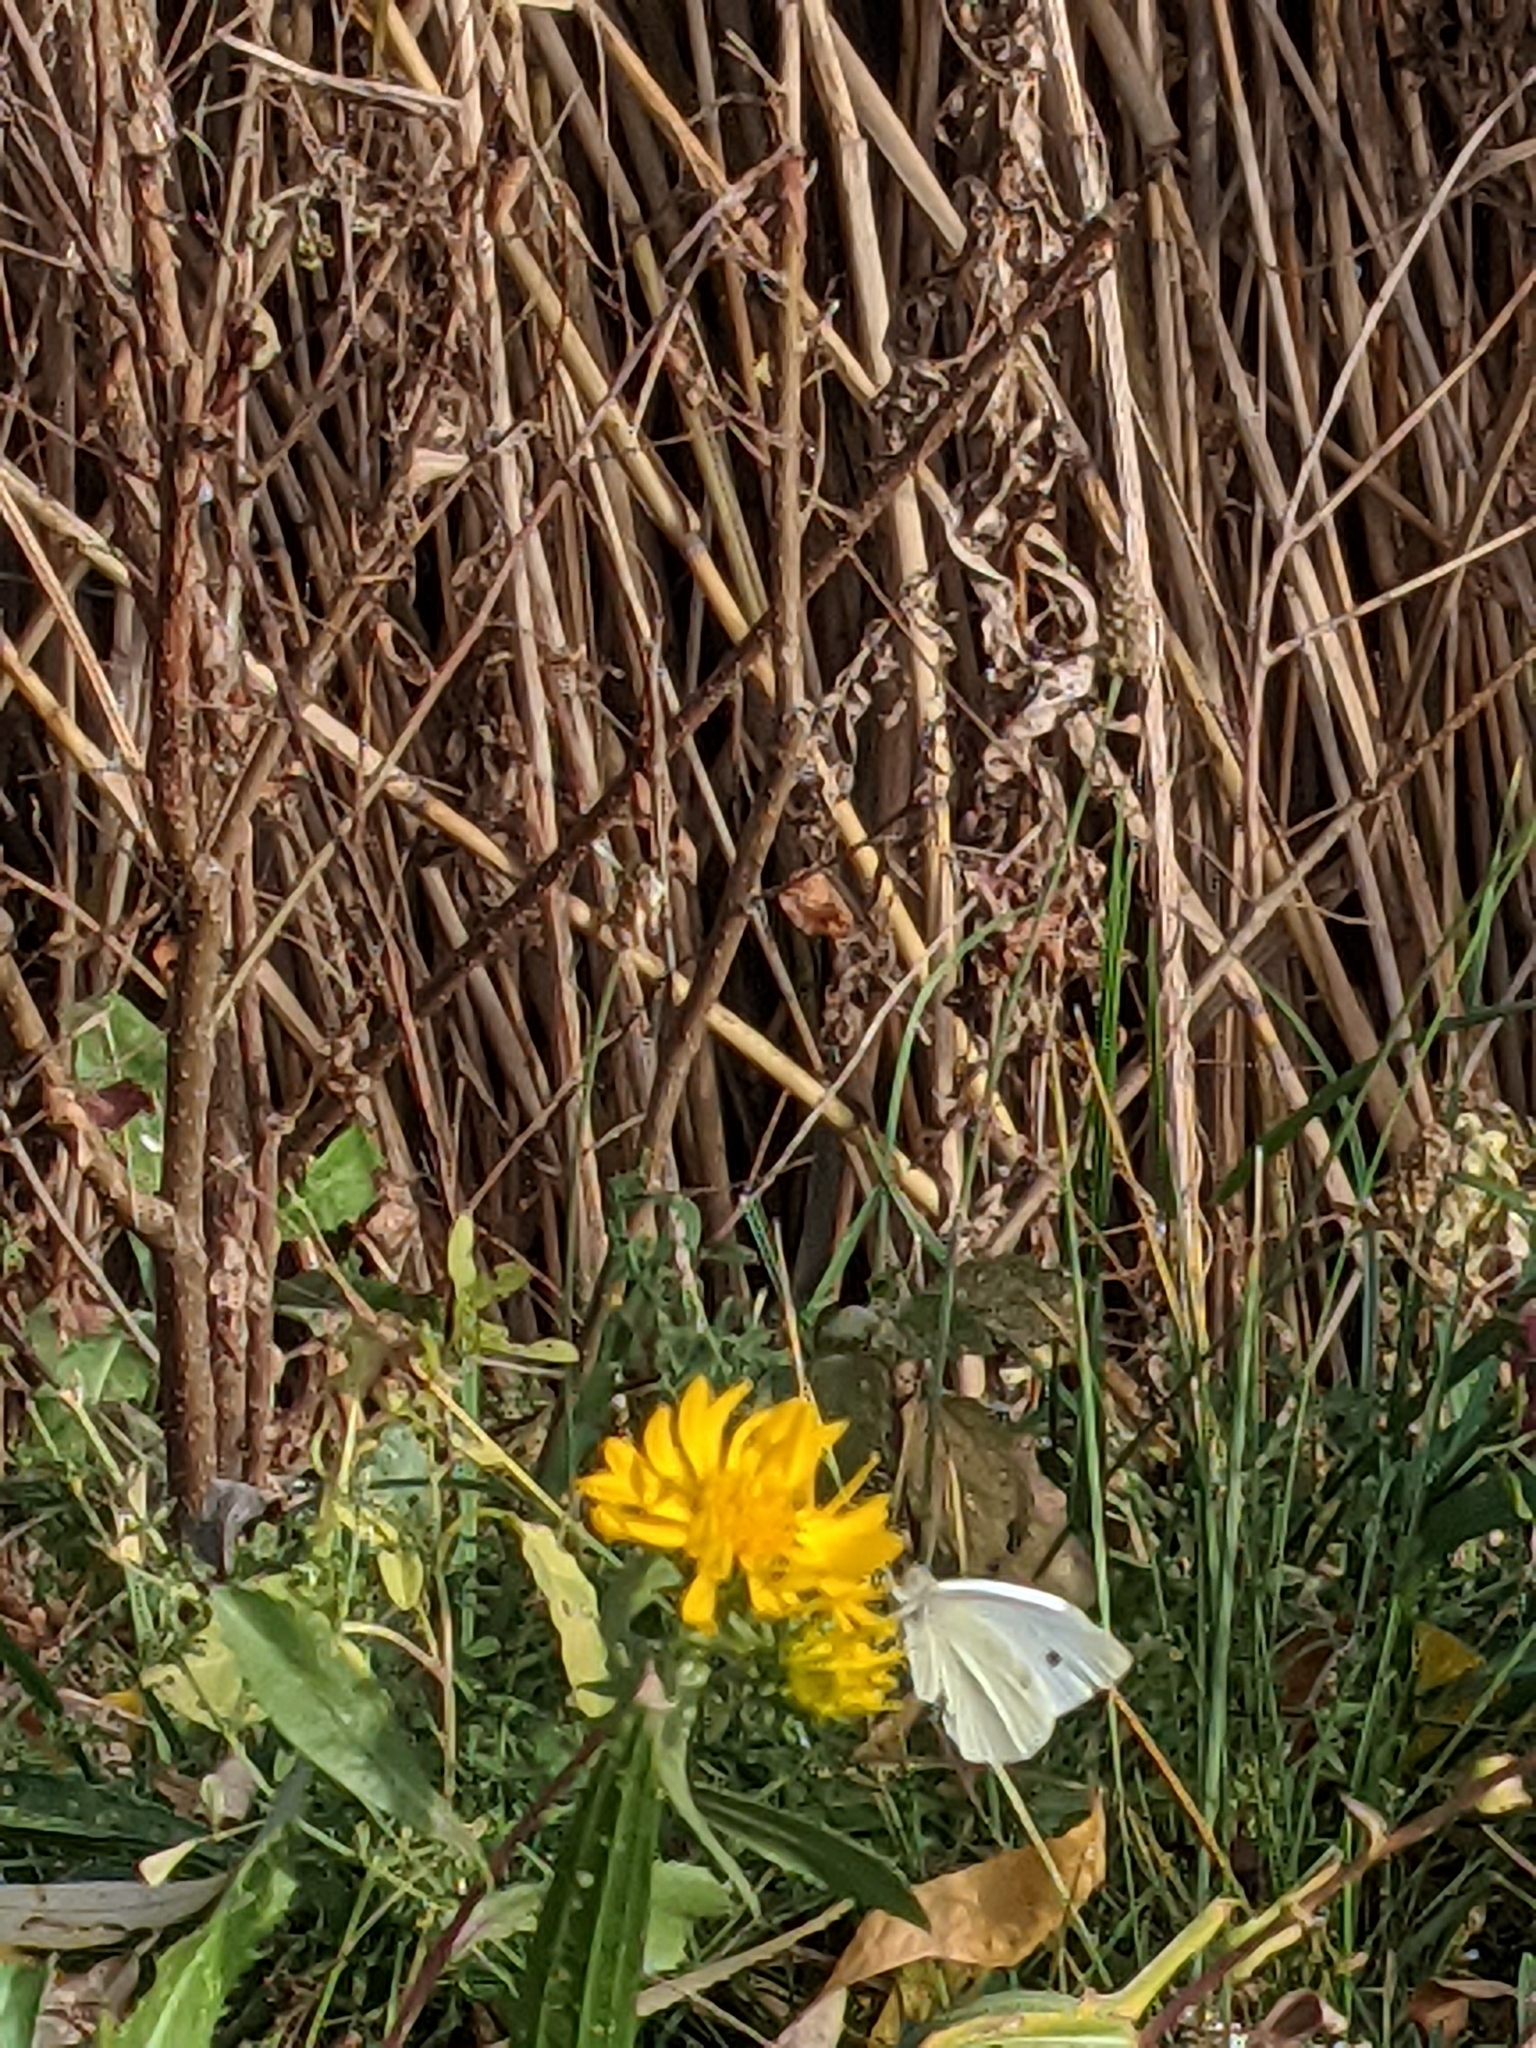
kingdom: Animalia
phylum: Arthropoda
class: Insecta
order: Lepidoptera
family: Pieridae
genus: Pieris
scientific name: Pieris rapae
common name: Small white
